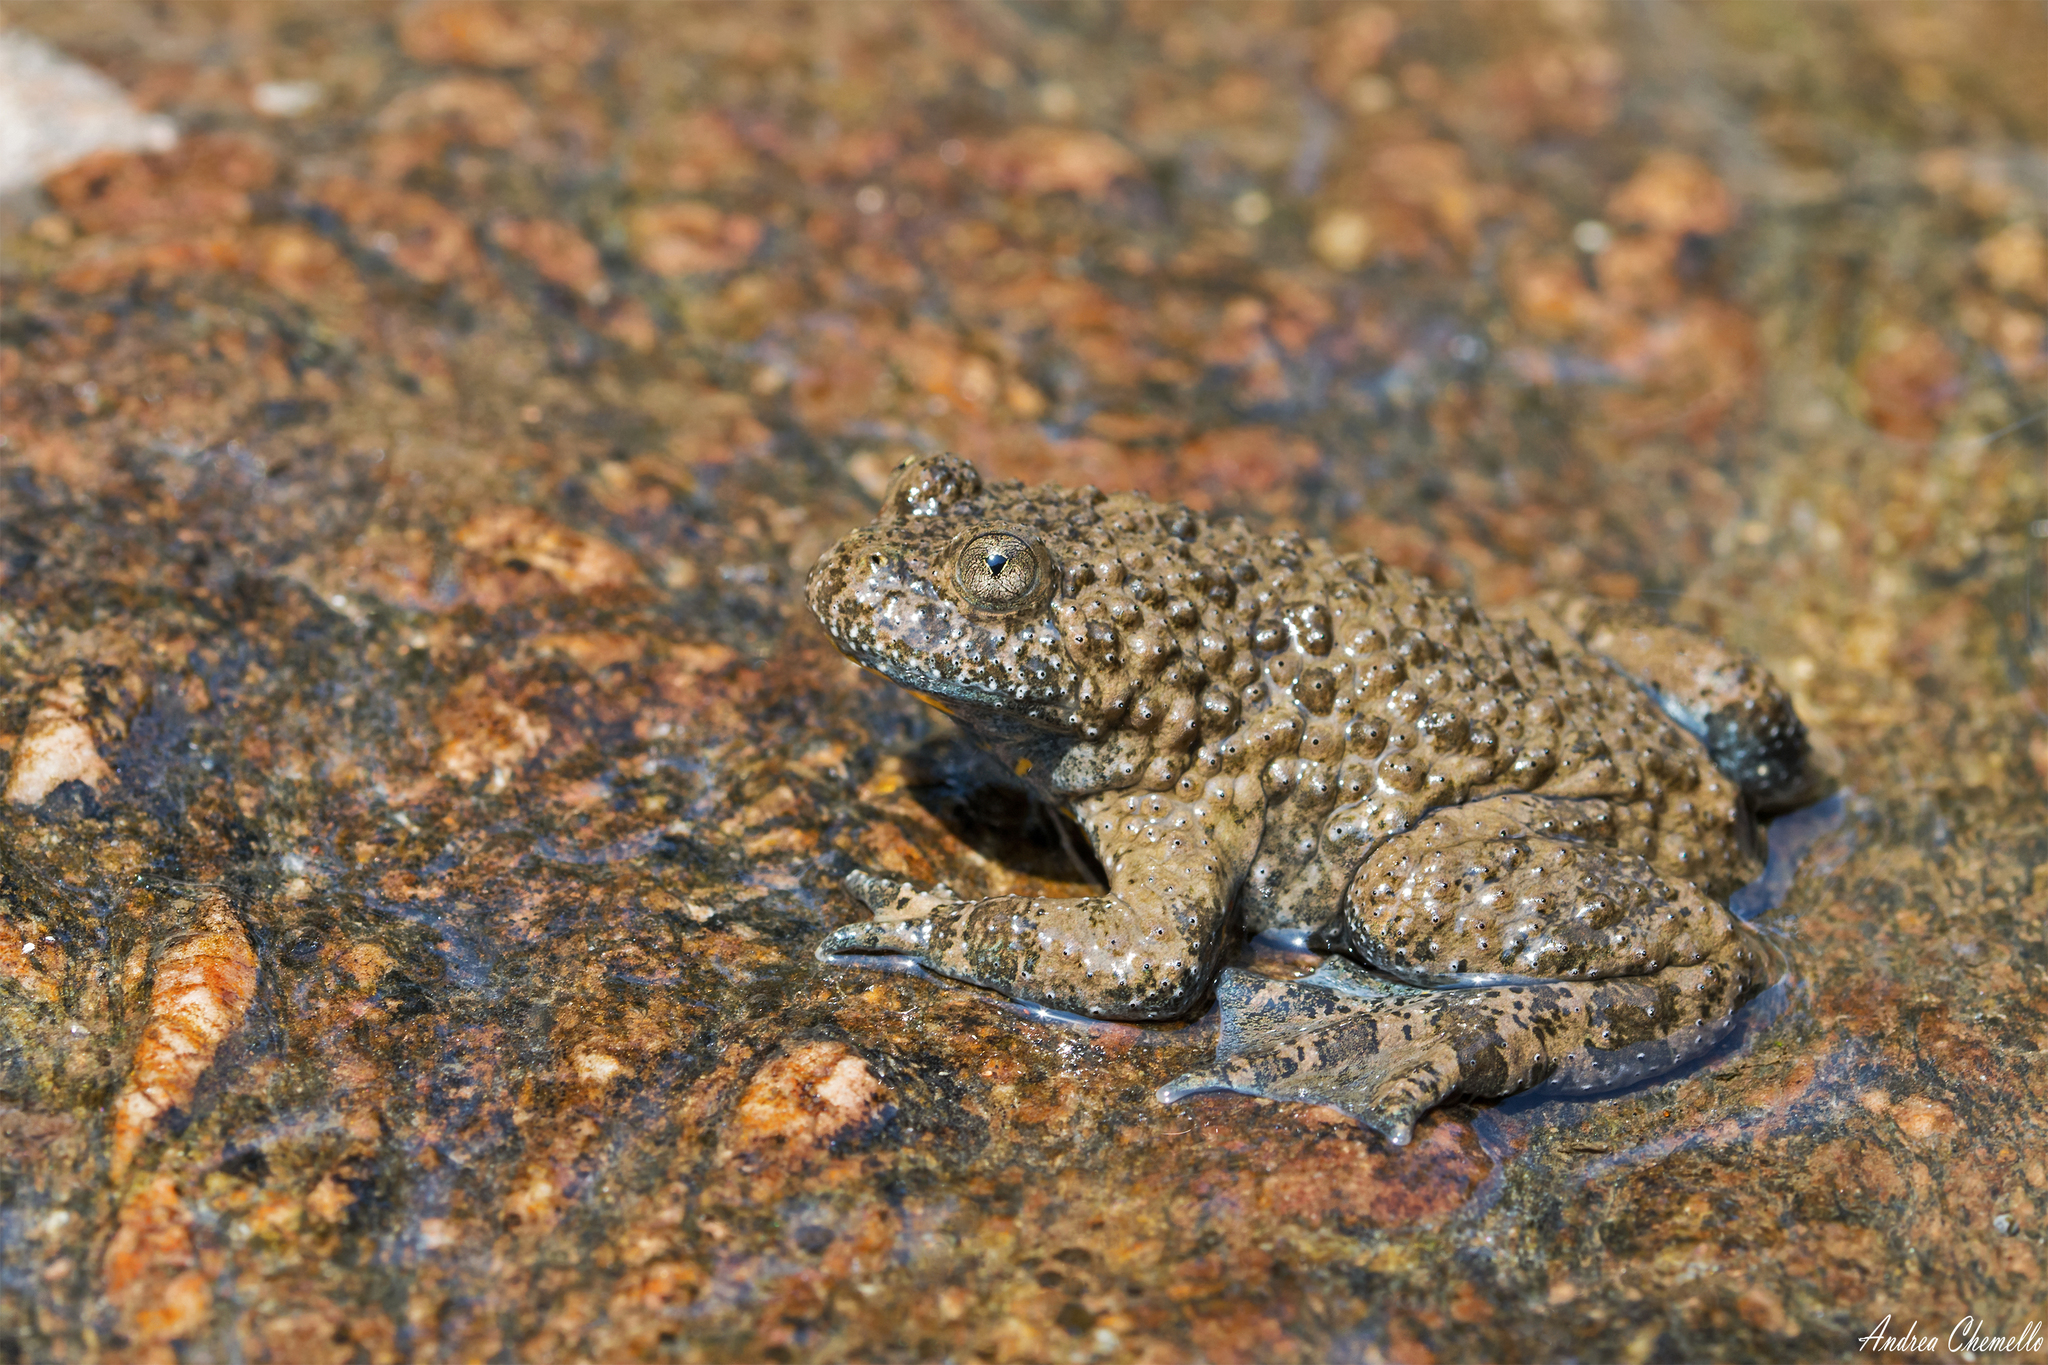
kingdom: Animalia
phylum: Chordata
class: Amphibia
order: Anura
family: Bombinatoridae
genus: Bombina
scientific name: Bombina variegata
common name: Yellow-bellied toad
